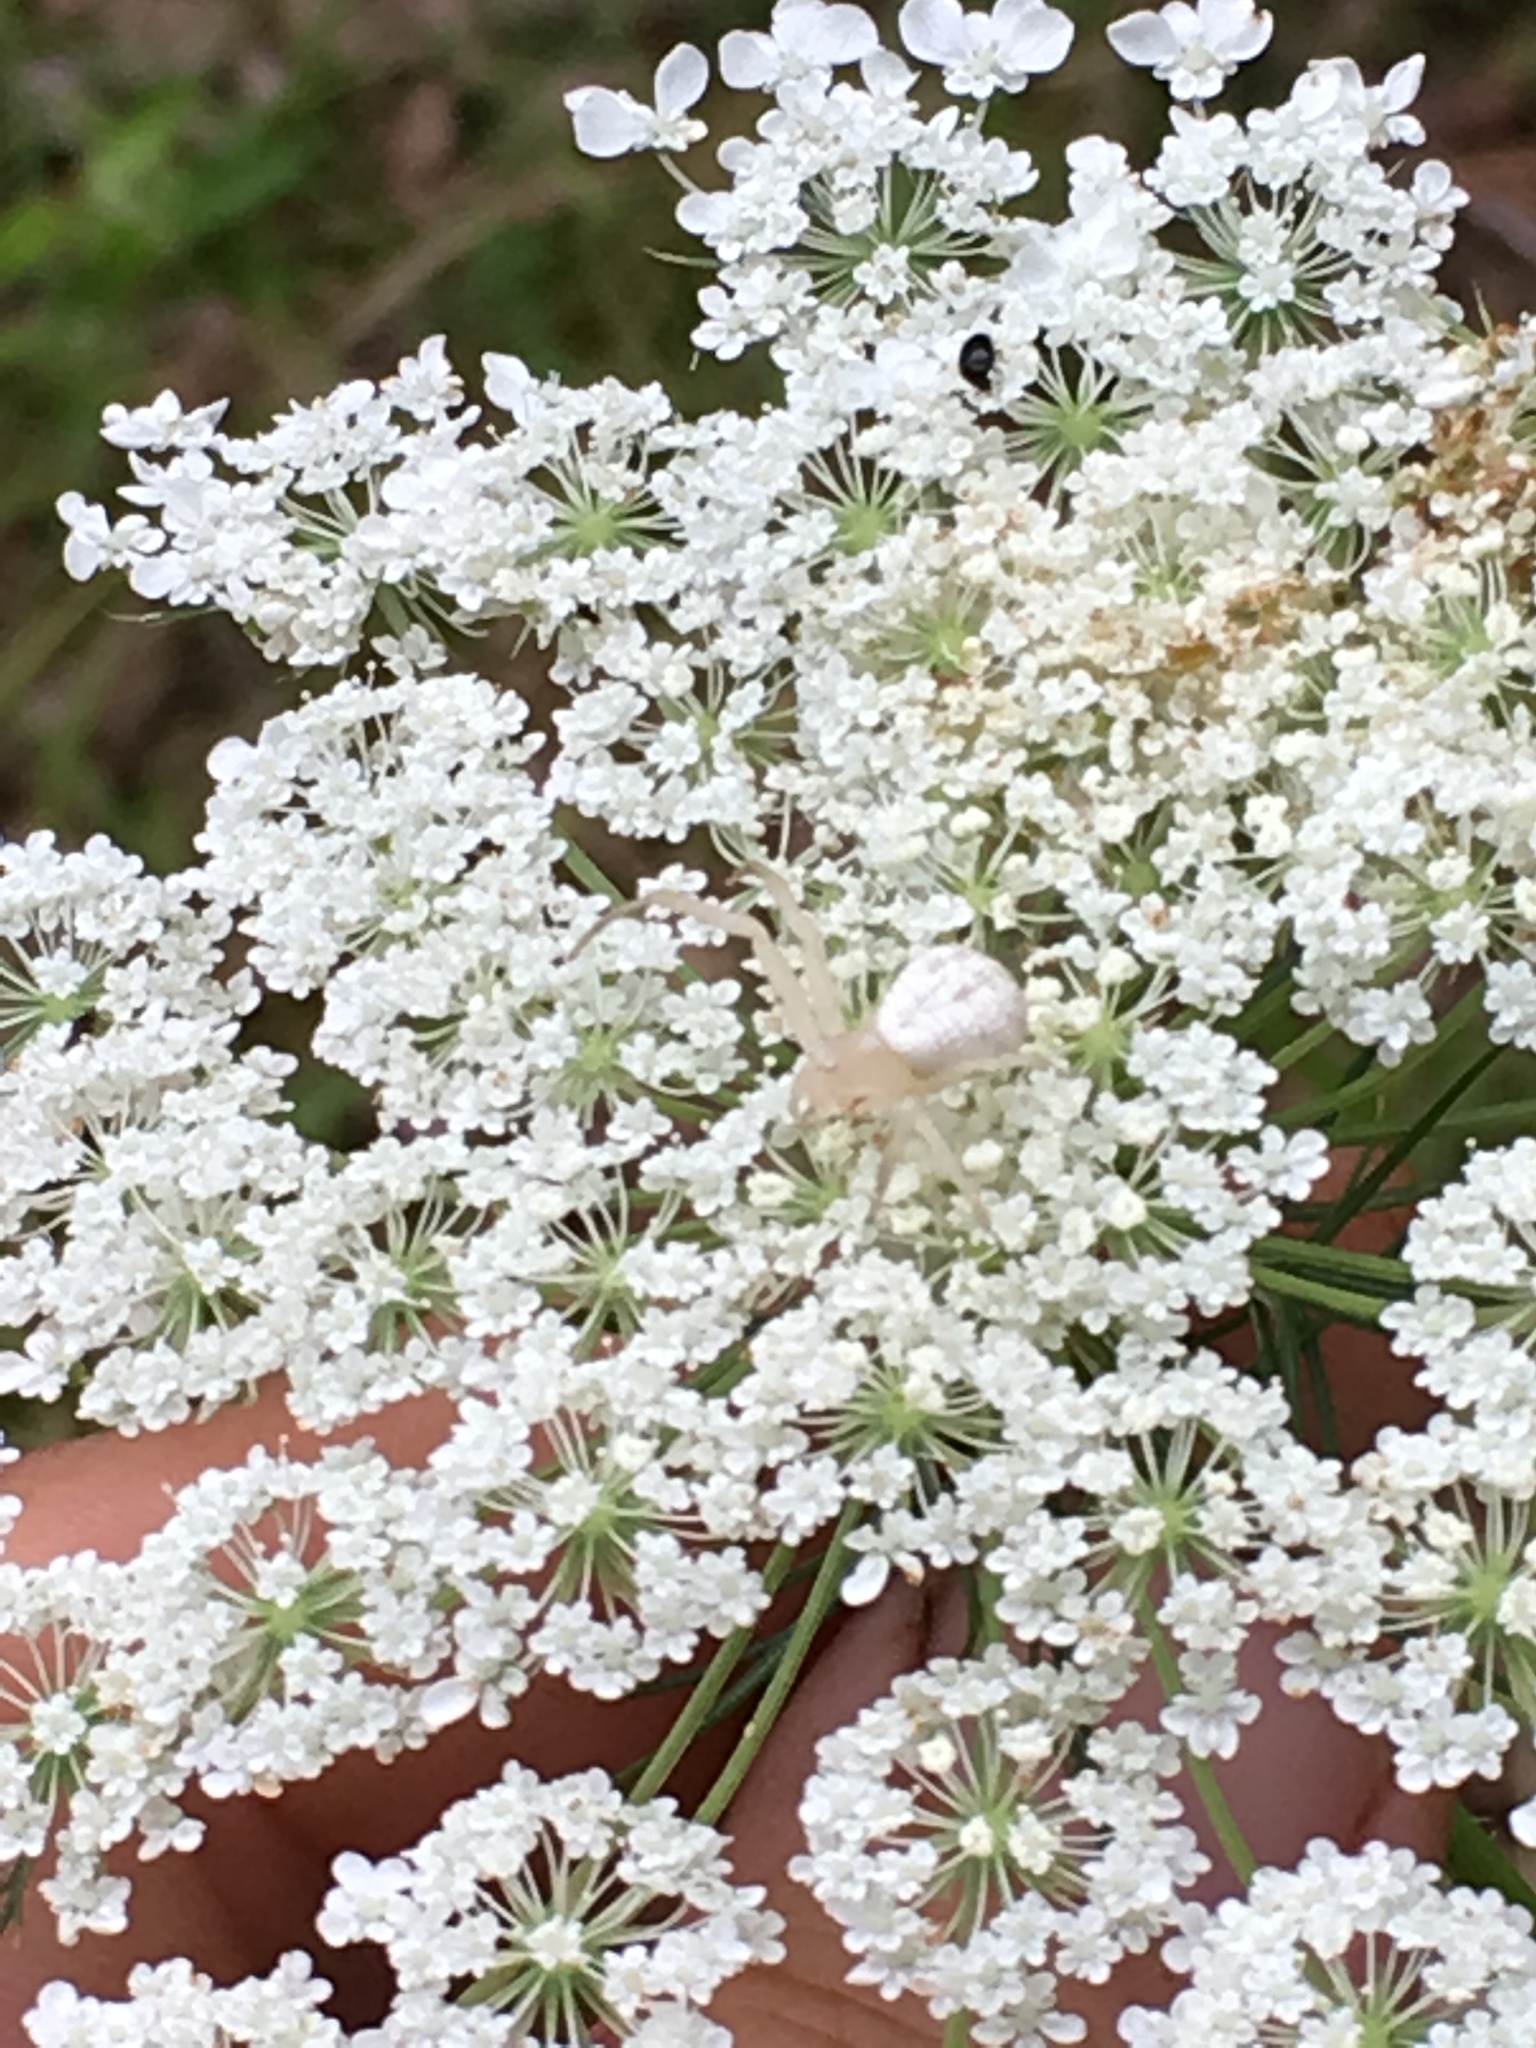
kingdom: Plantae
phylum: Tracheophyta
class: Magnoliopsida
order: Apiales
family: Apiaceae
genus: Daucus
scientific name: Daucus carota
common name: Wild carrot
